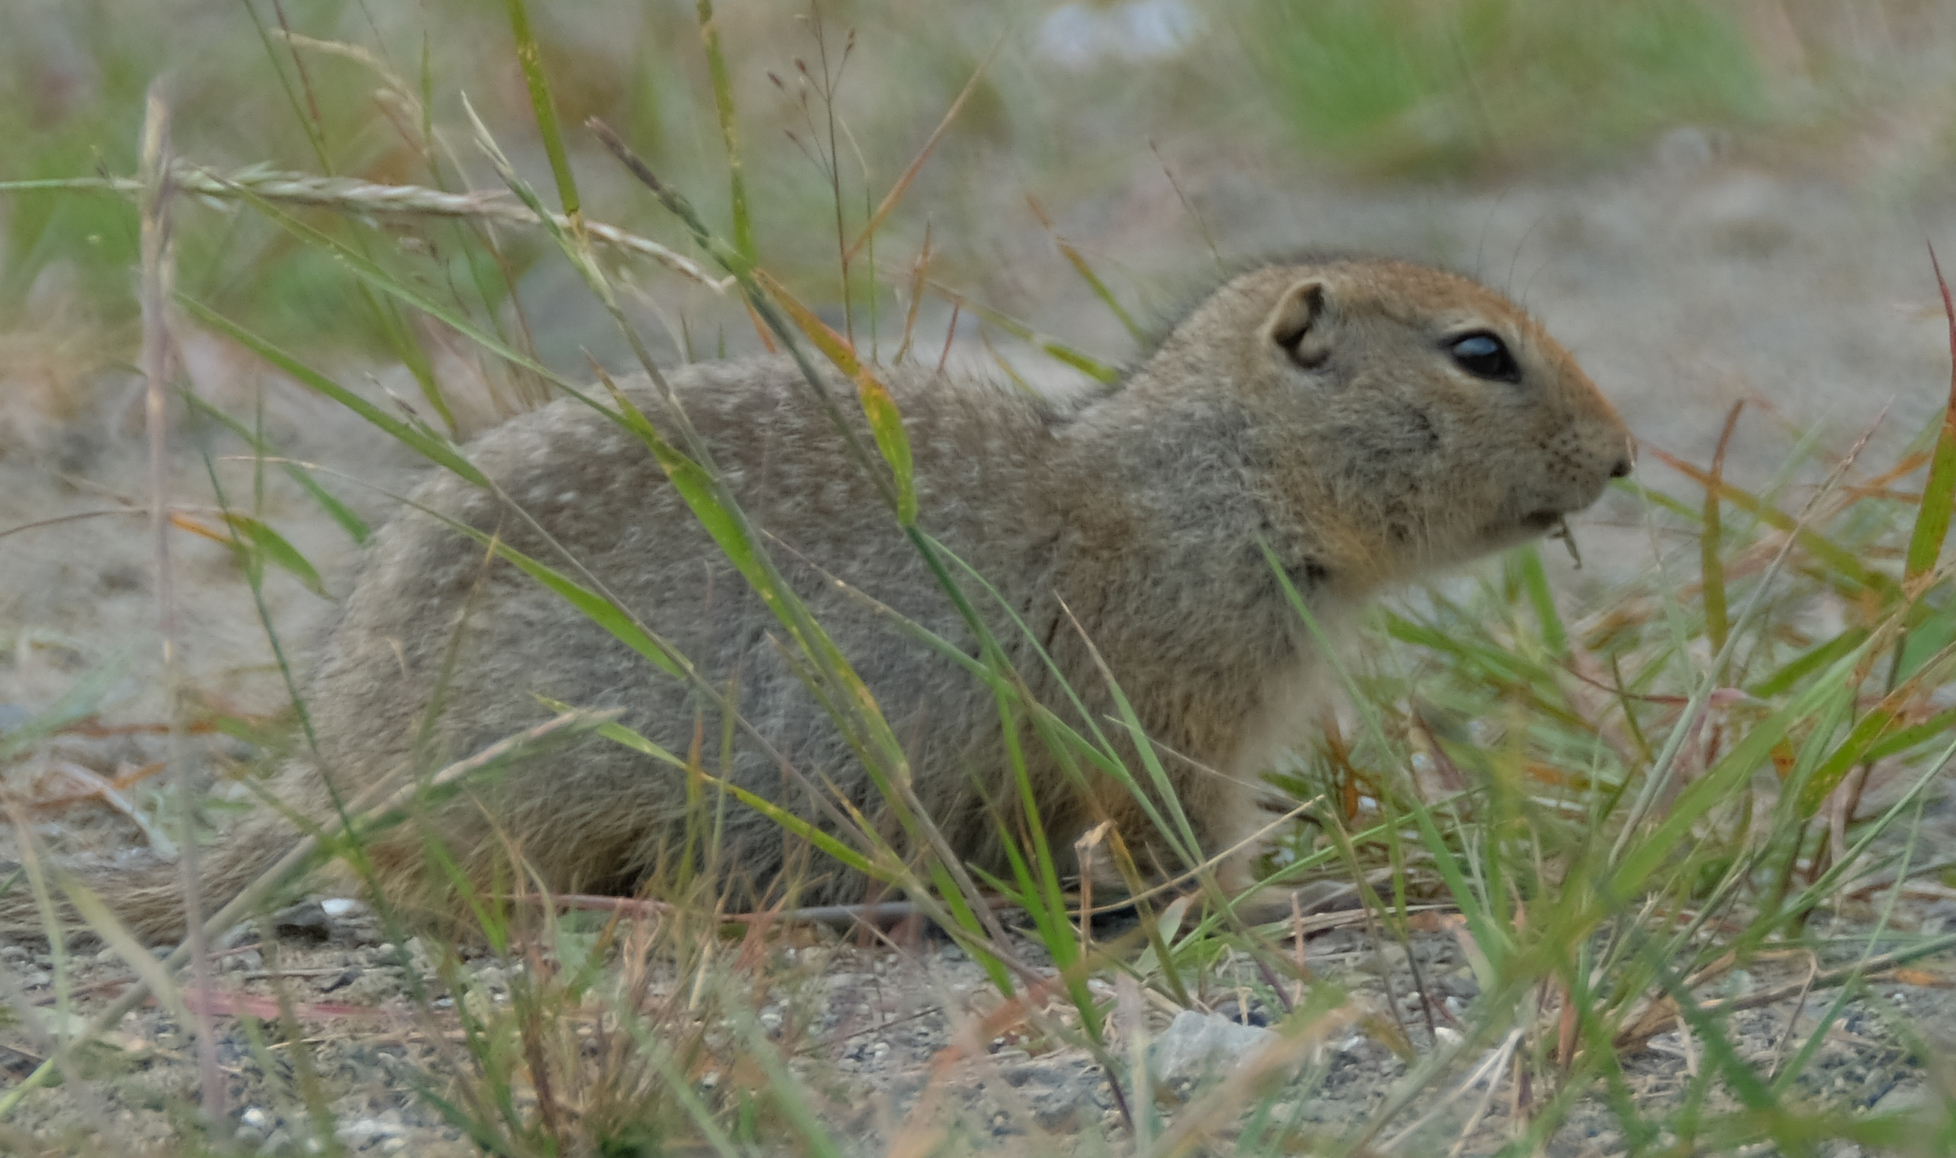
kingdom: Animalia
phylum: Chordata
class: Mammalia
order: Rodentia
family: Sciuridae
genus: Urocitellus
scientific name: Urocitellus parryii
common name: Arctic ground squirrel
